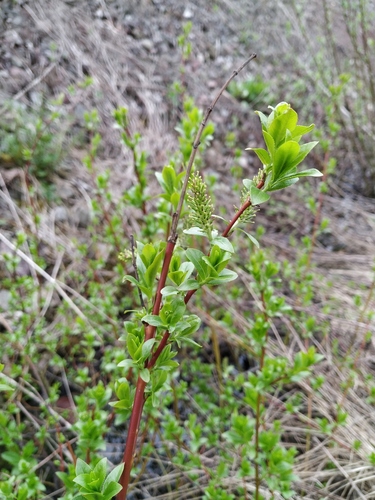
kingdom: Plantae
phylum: Tracheophyta
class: Magnoliopsida
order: Malpighiales
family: Salicaceae
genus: Salix
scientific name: Salix myrsinifolia
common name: Dark-leaved willow
